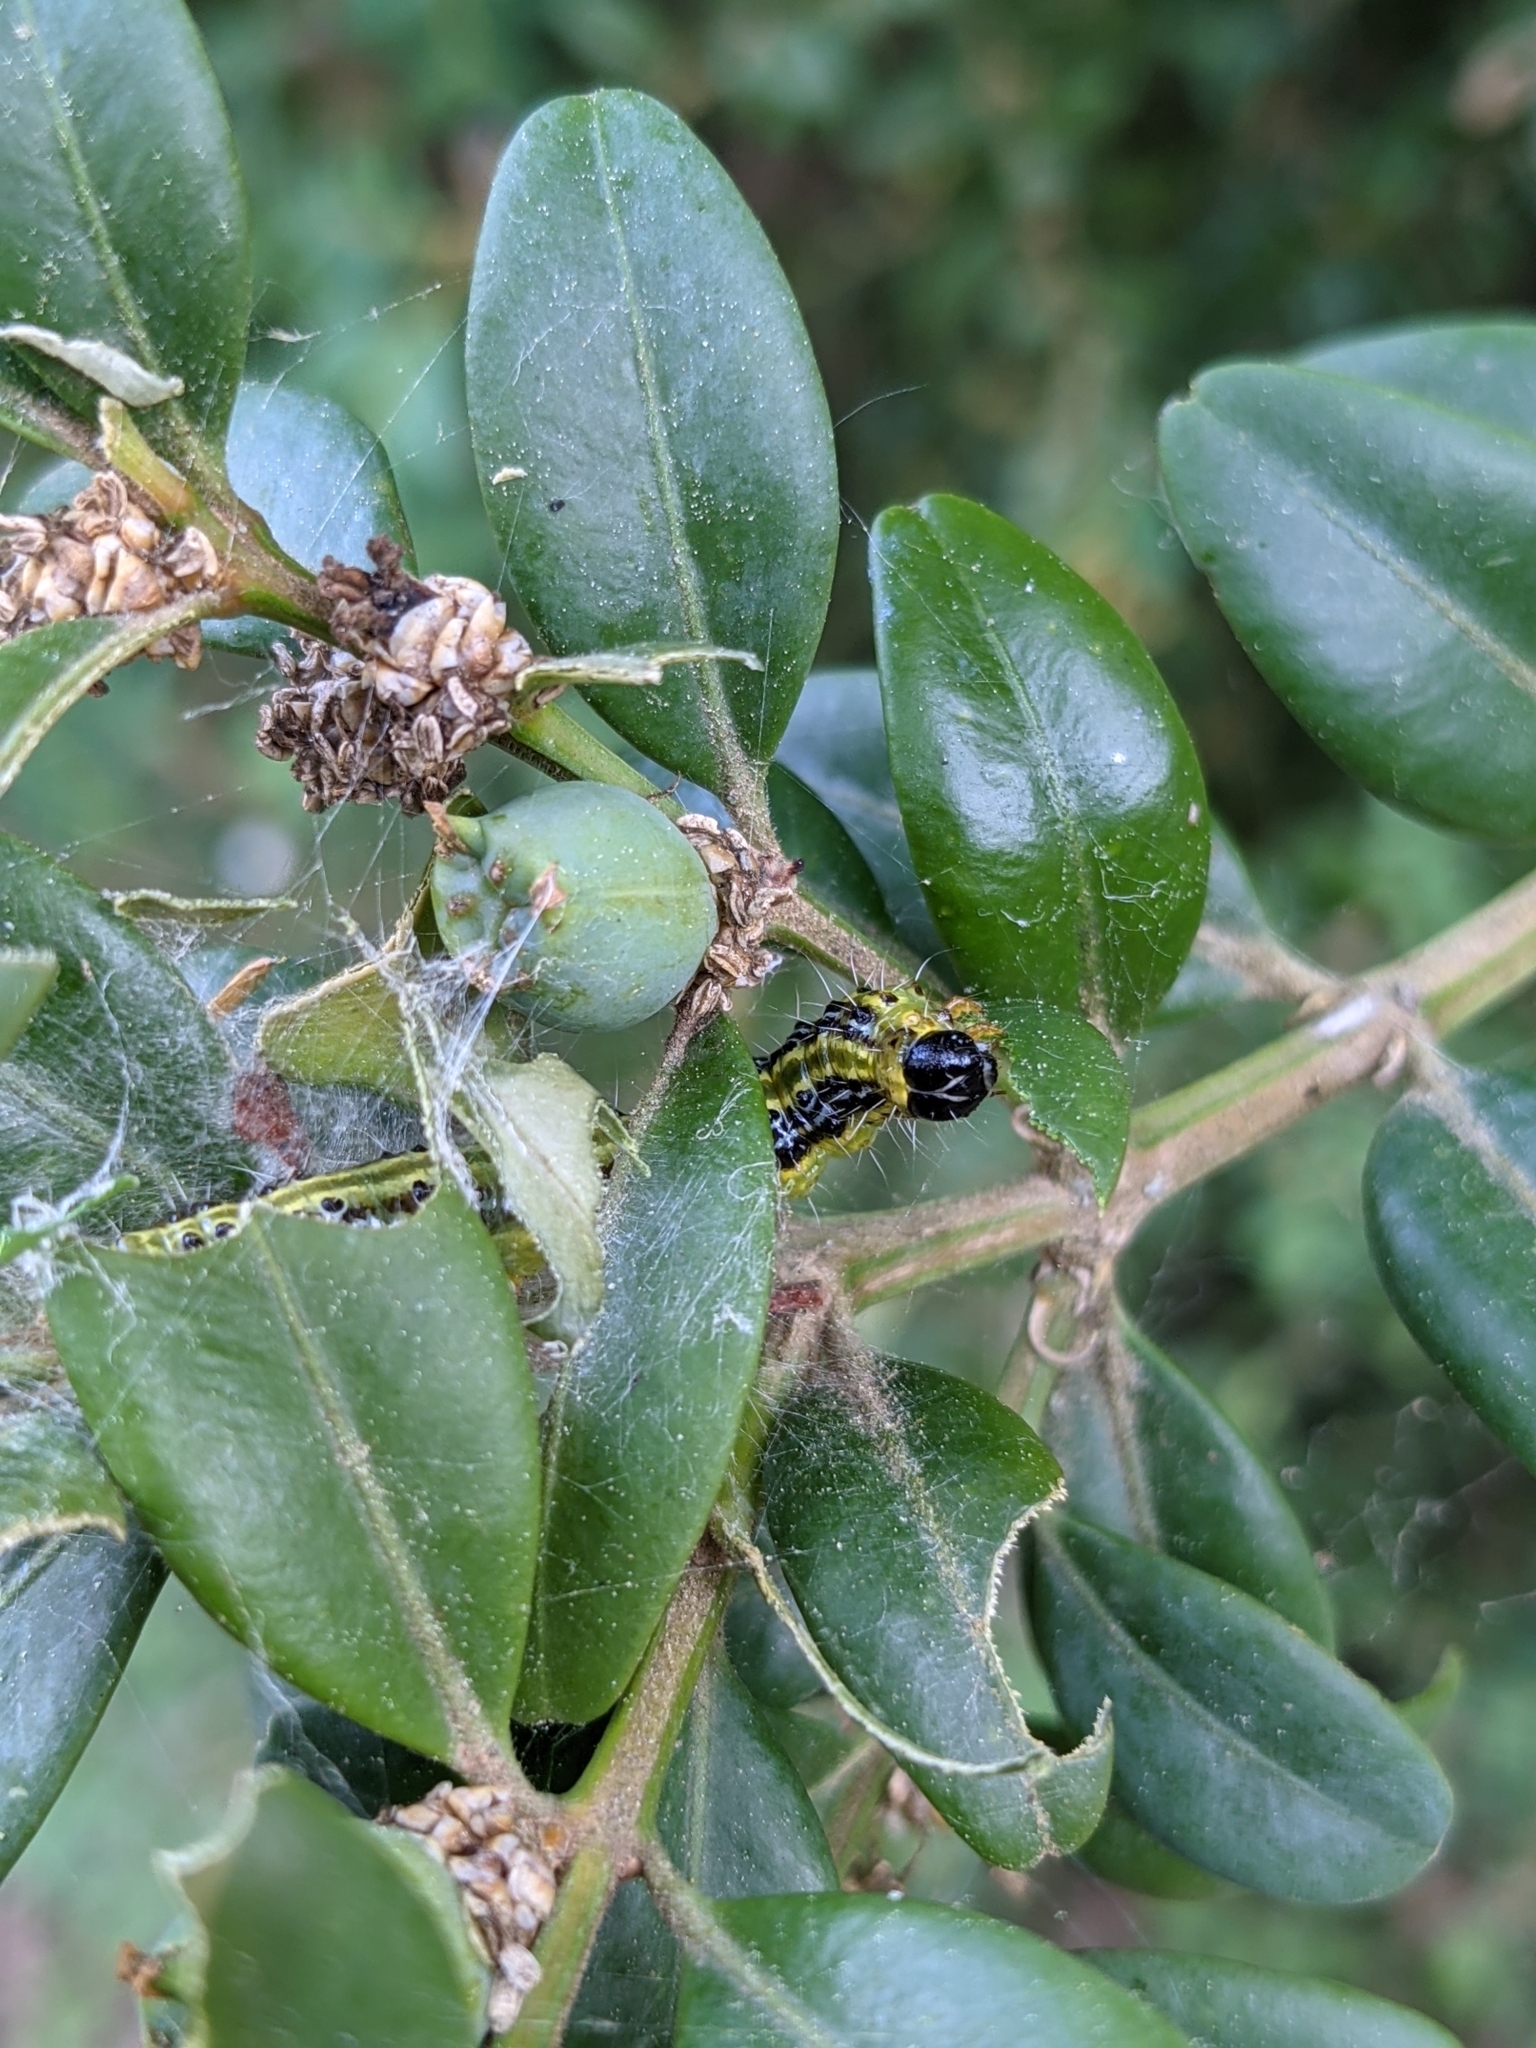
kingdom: Animalia
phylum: Arthropoda
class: Insecta
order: Lepidoptera
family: Crambidae
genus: Cydalima
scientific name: Cydalima perspectalis
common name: Box tree moth
